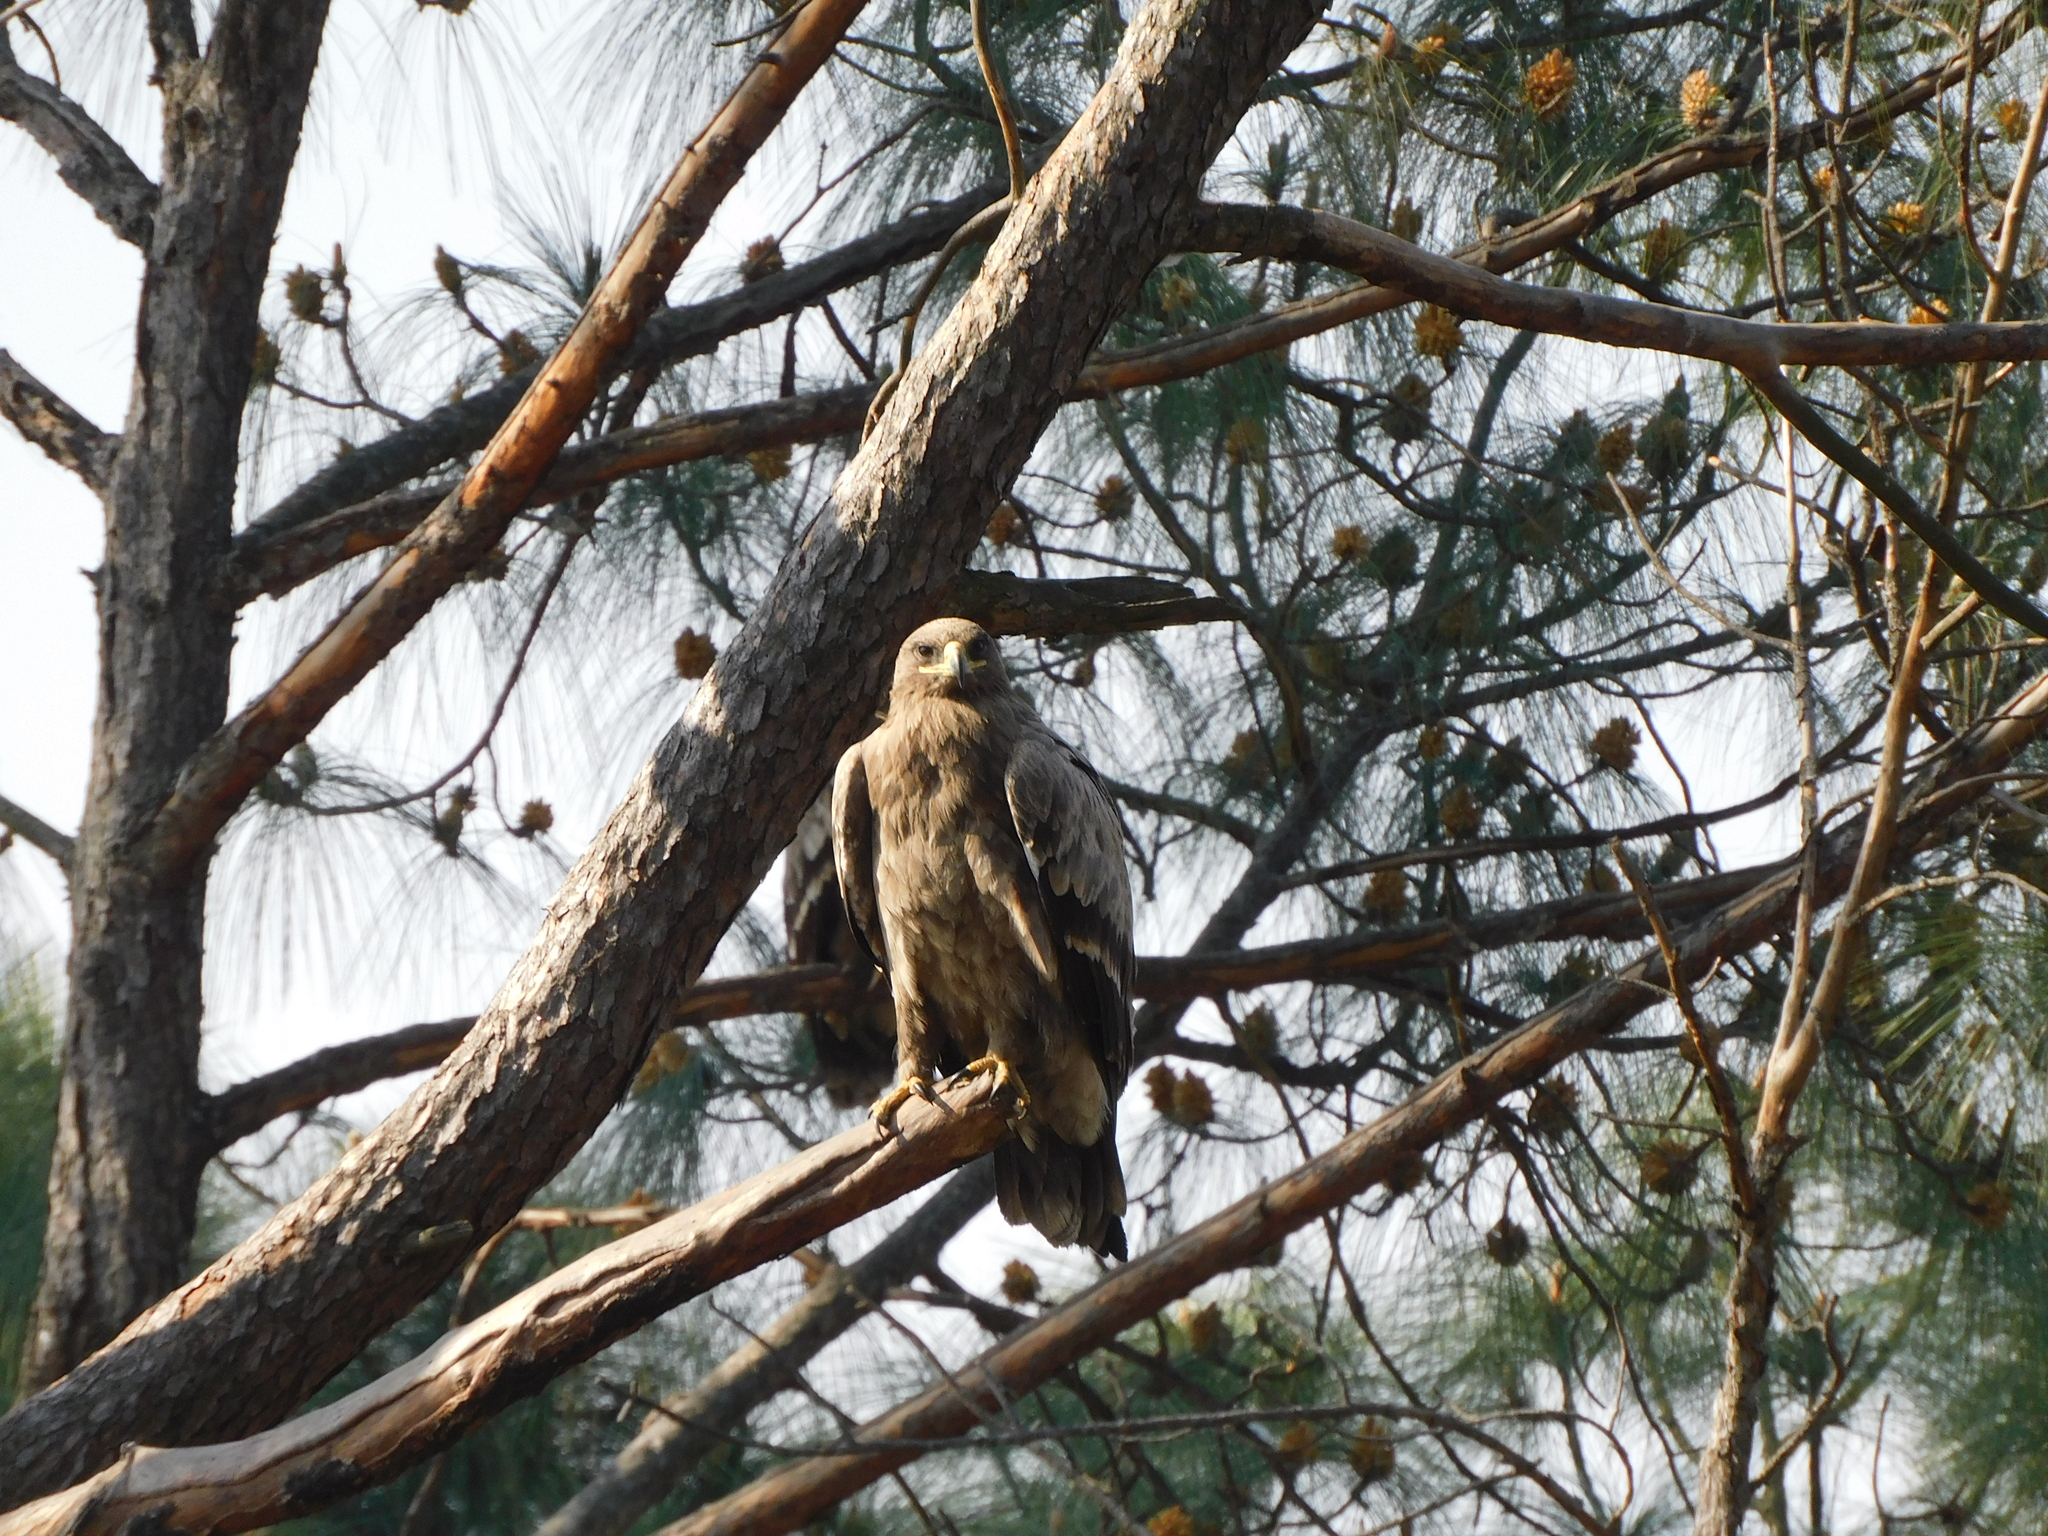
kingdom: Animalia
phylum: Chordata
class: Aves
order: Accipitriformes
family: Accipitridae
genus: Aquila
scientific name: Aquila nipalensis
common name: Steppe eagle
